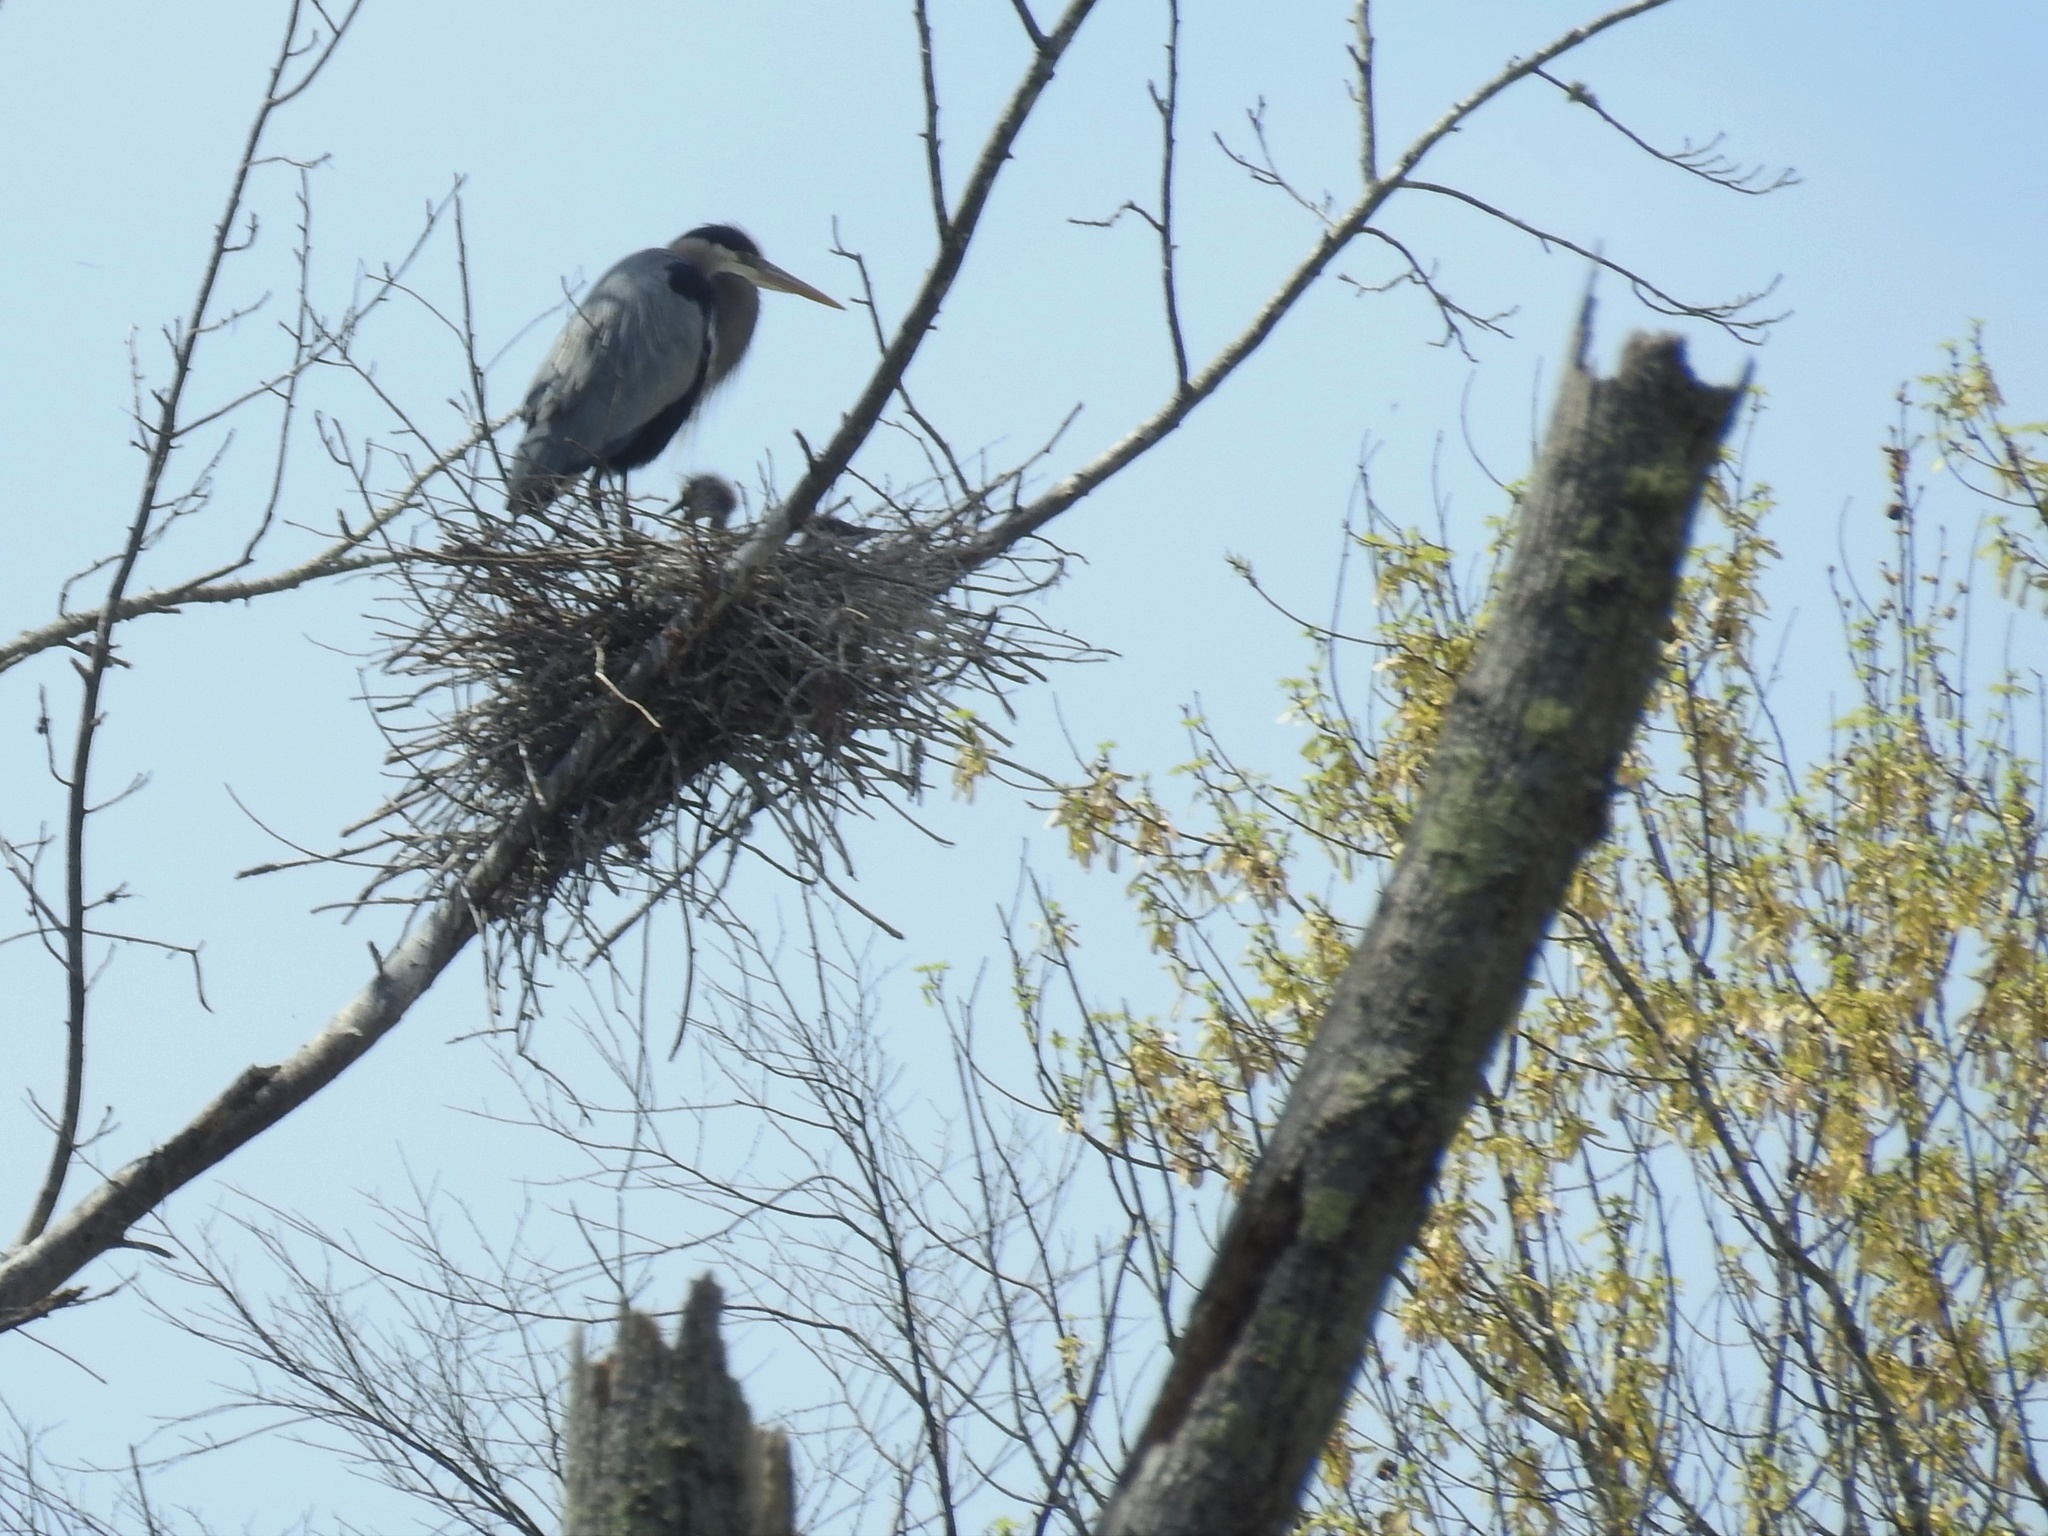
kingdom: Animalia
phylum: Chordata
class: Aves
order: Pelecaniformes
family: Ardeidae
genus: Ardea
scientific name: Ardea herodias
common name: Great blue heron
